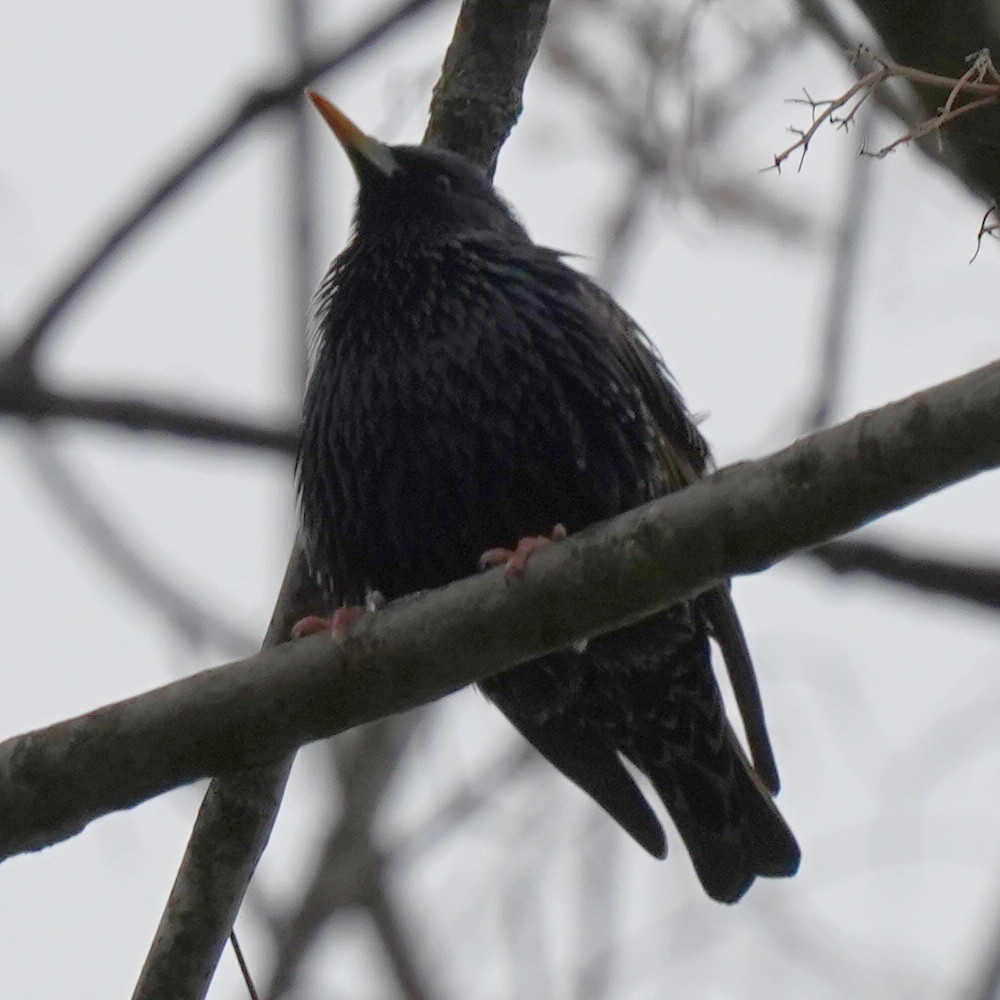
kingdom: Animalia
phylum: Chordata
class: Aves
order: Passeriformes
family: Sturnidae
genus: Sturnus
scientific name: Sturnus vulgaris
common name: Common starling
